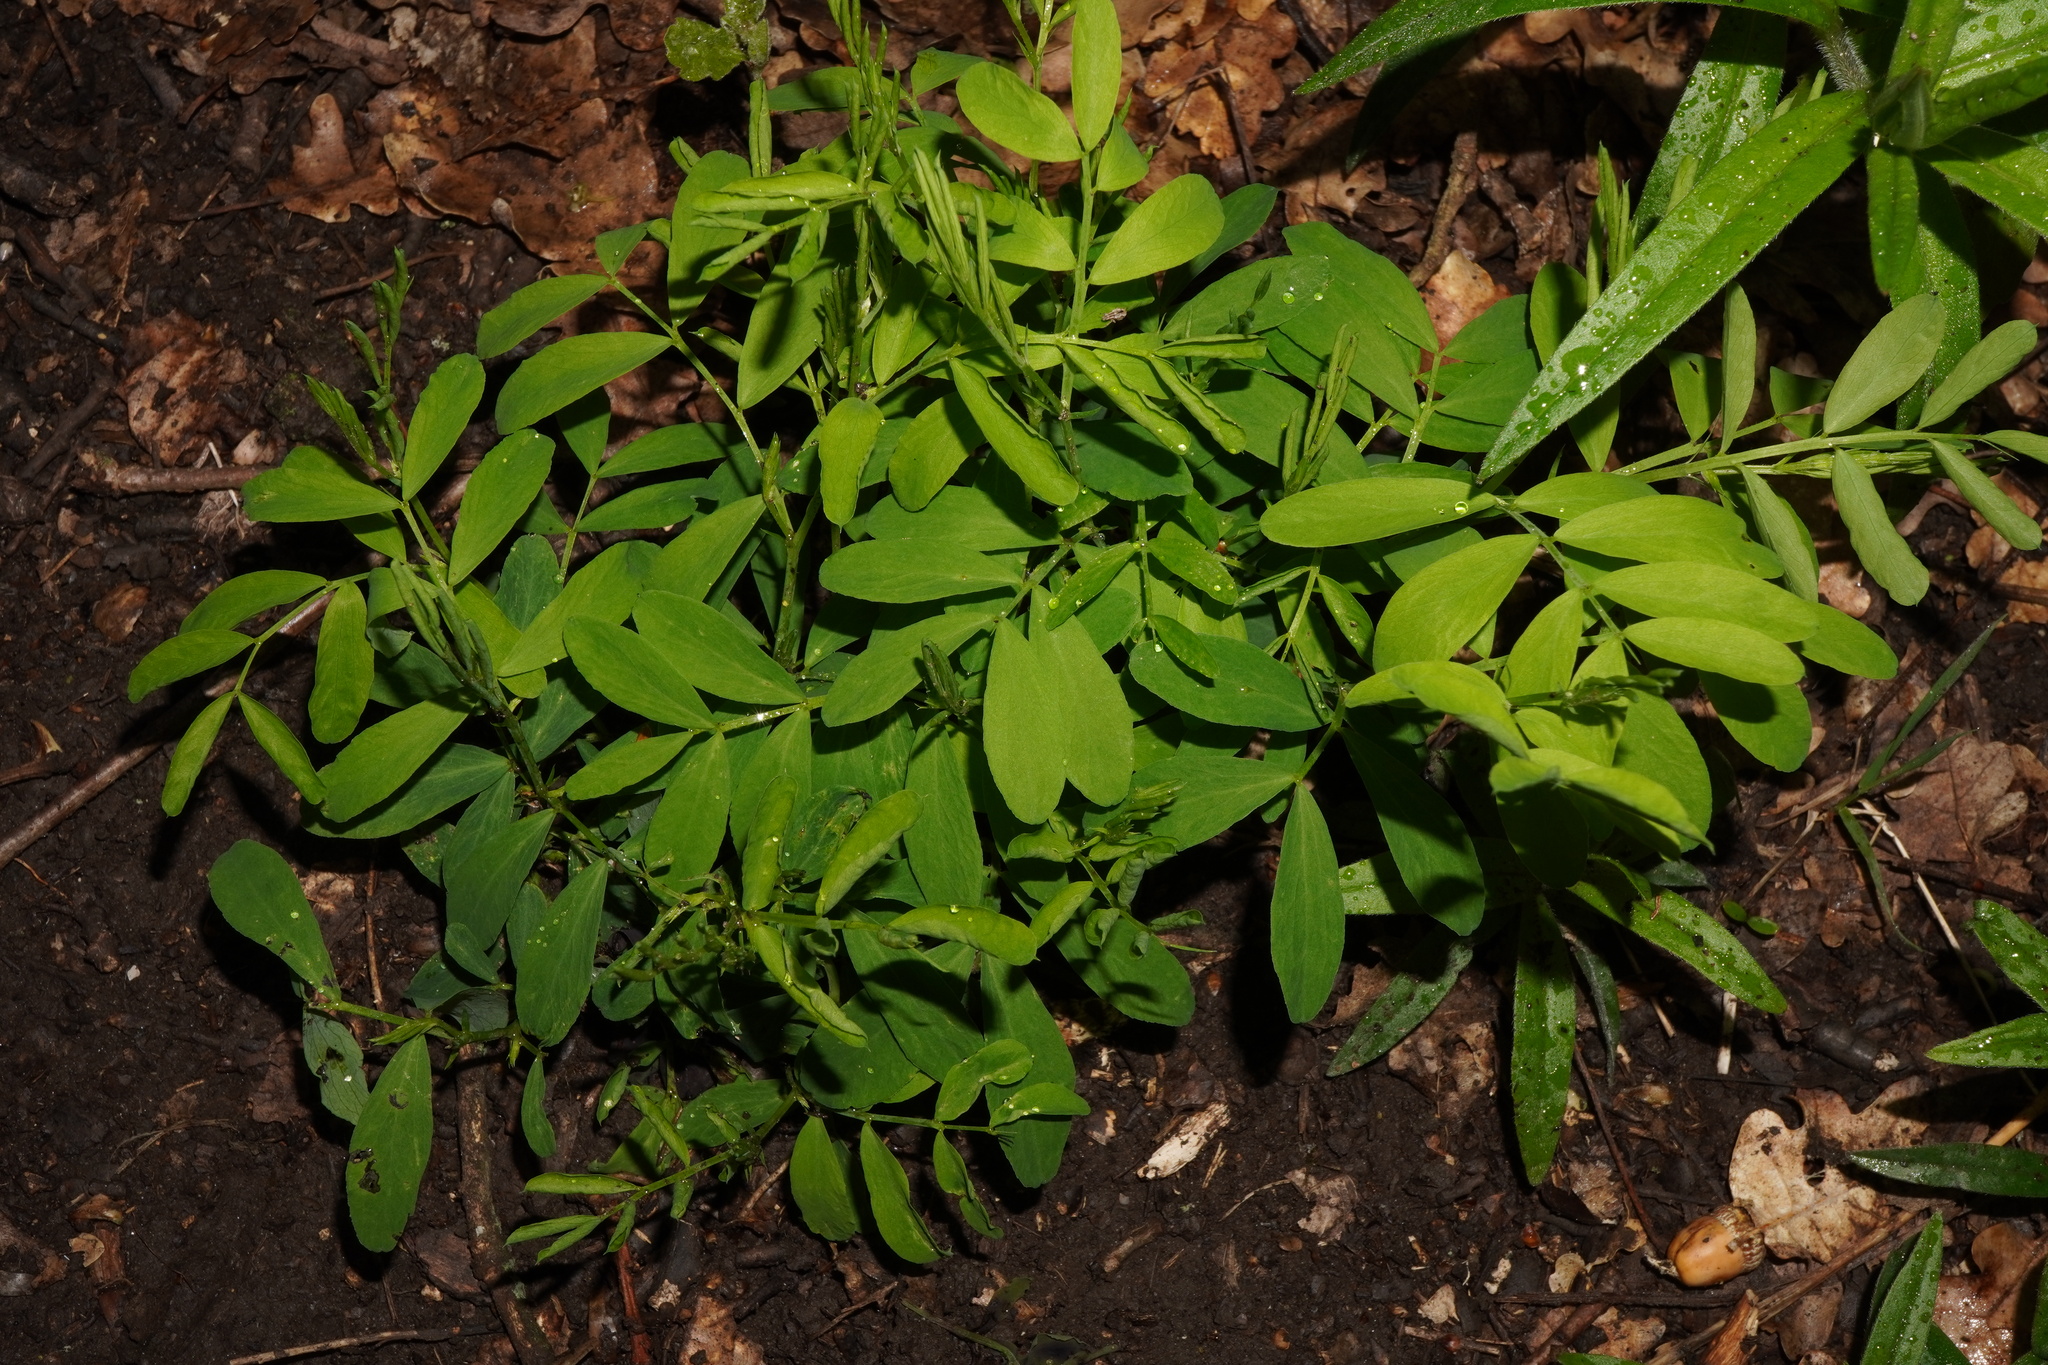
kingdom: Plantae
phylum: Tracheophyta
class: Magnoliopsida
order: Fabales
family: Fabaceae
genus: Lathyrus
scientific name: Lathyrus niger
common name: Black pea
